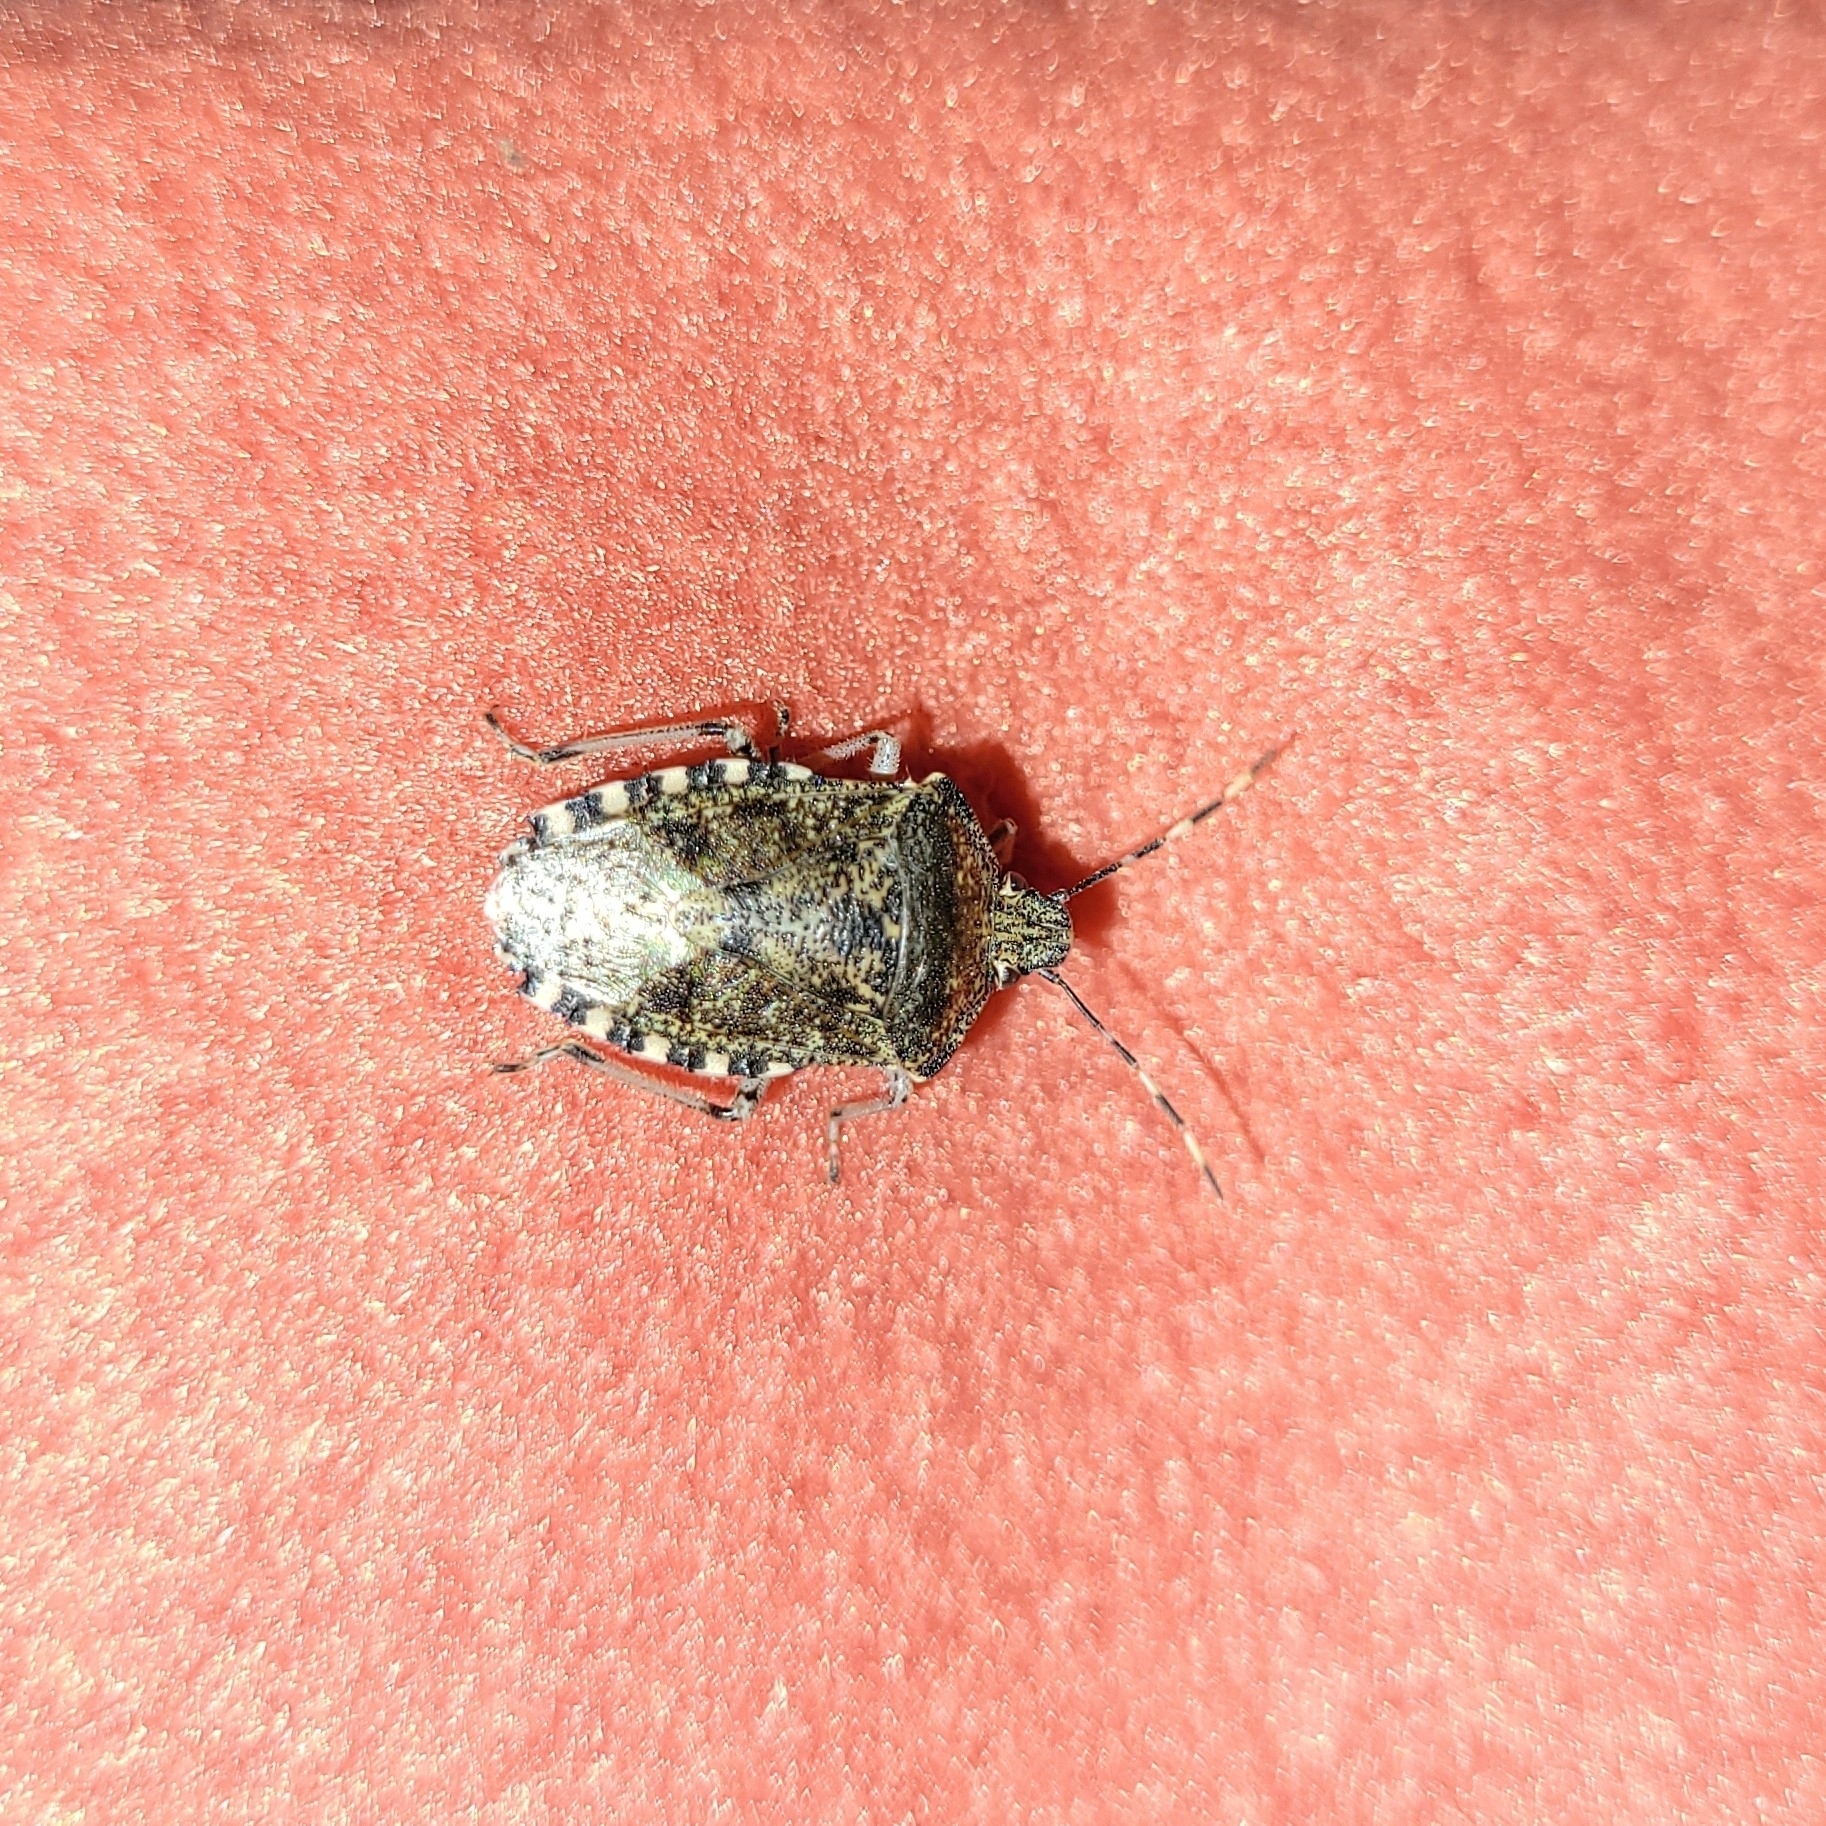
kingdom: Animalia
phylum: Arthropoda
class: Insecta
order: Hemiptera
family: Pentatomidae
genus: Rhaphigaster
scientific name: Rhaphigaster nebulosa
